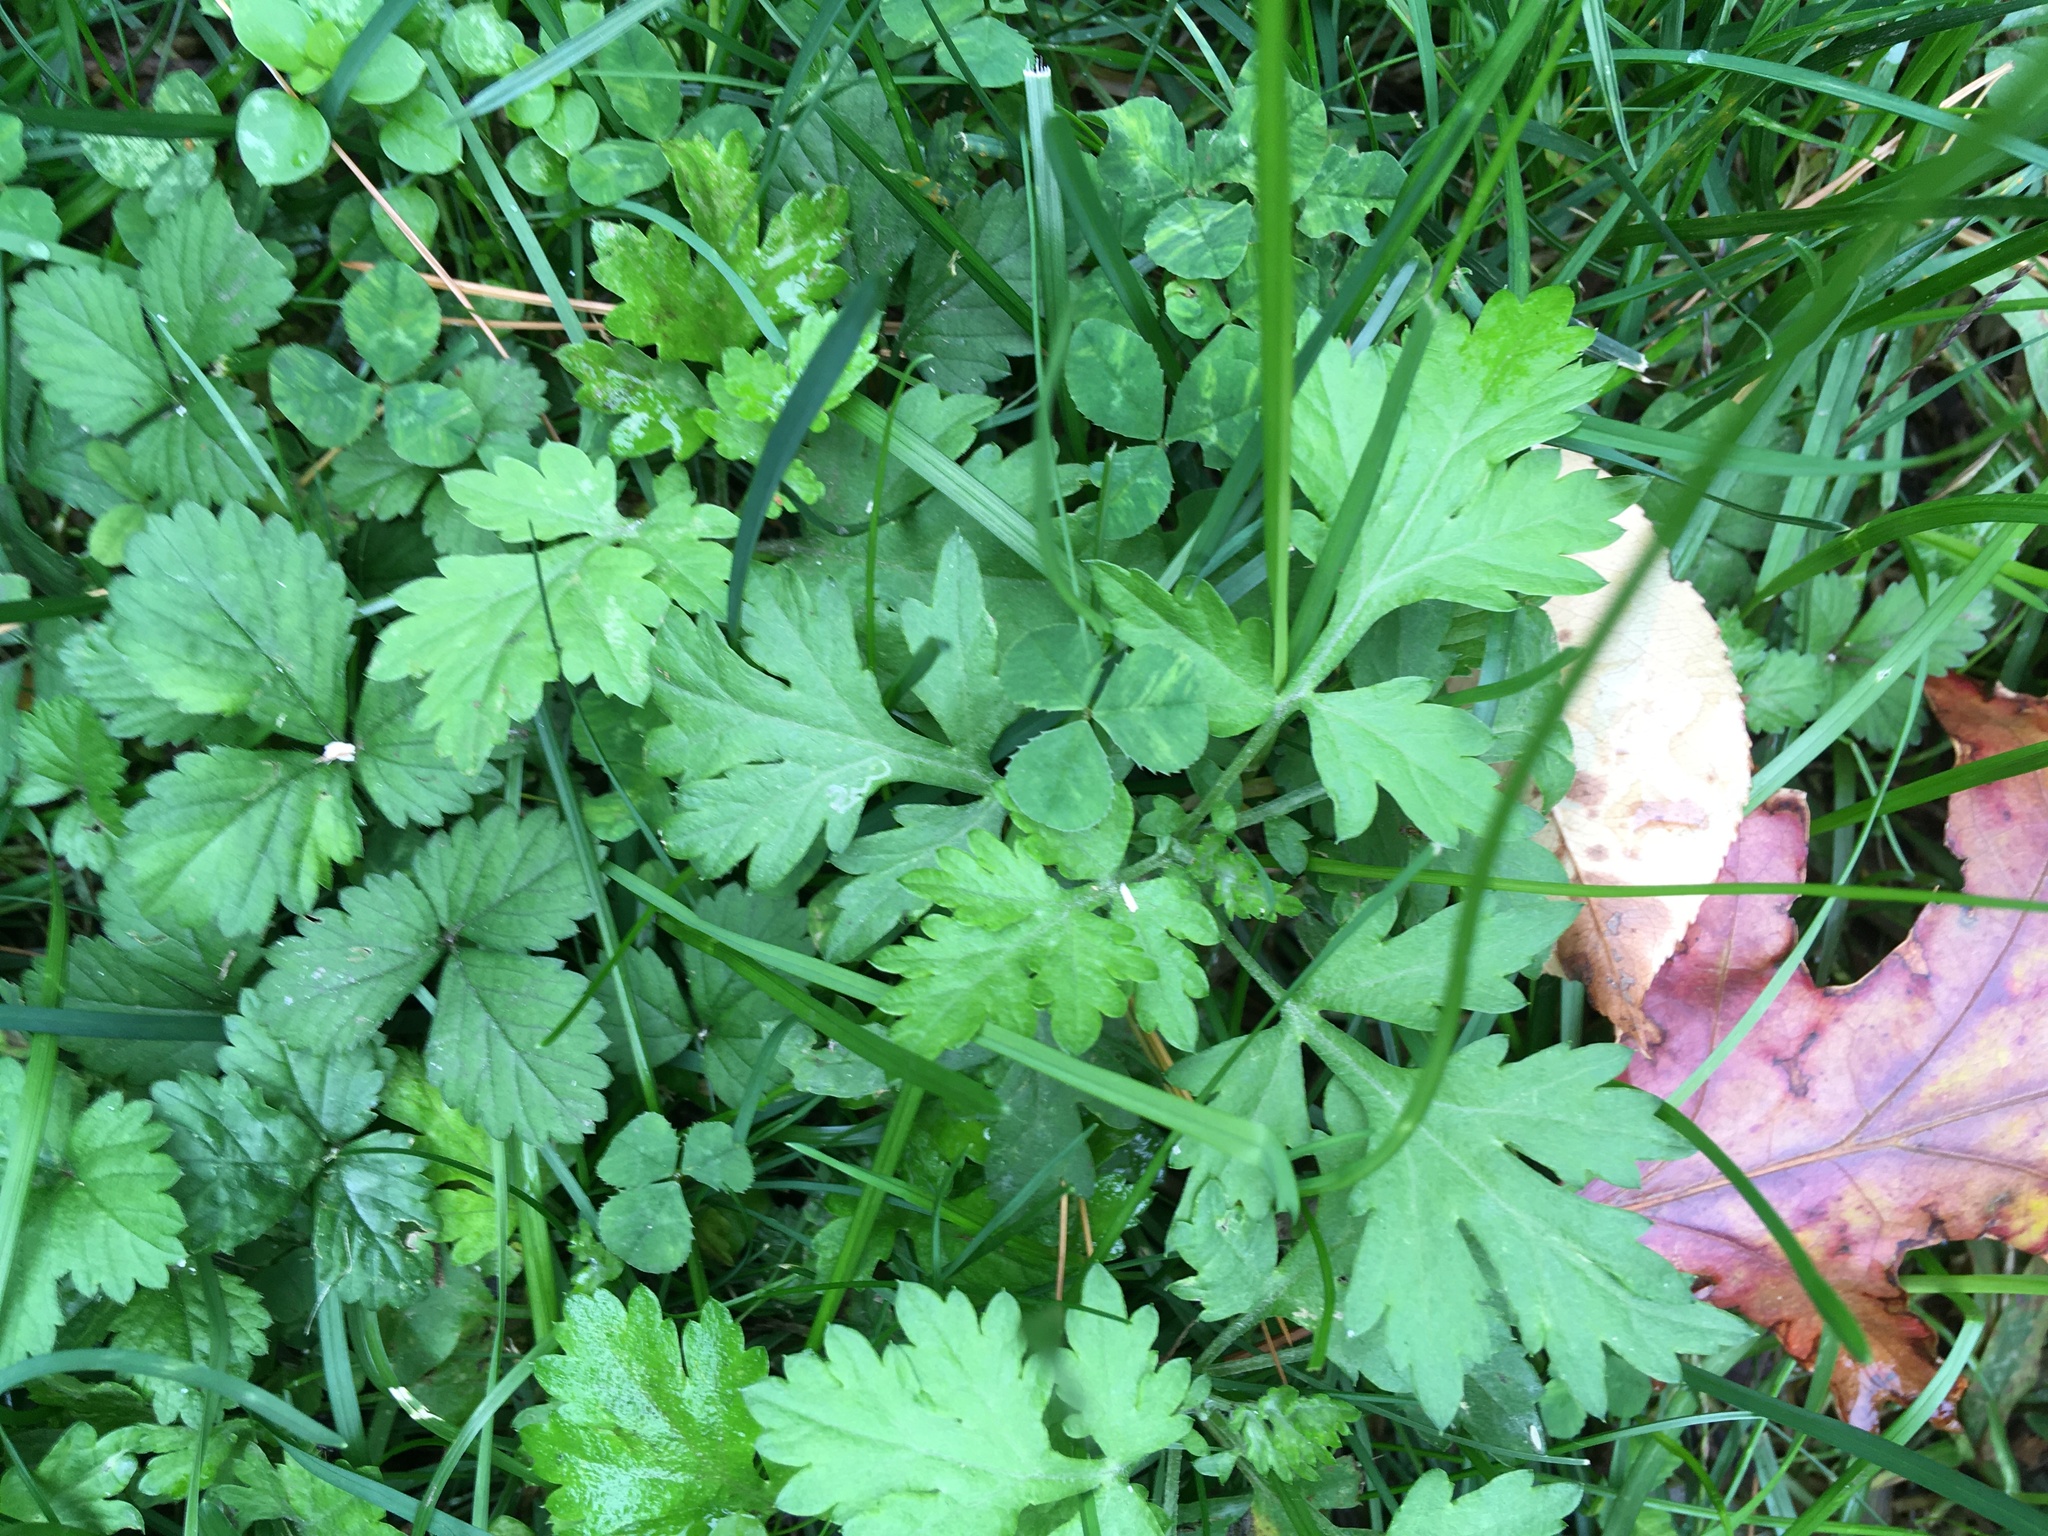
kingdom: Plantae
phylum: Tracheophyta
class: Magnoliopsida
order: Asterales
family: Asteraceae
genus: Artemisia
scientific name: Artemisia vulgaris
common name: Mugwort
